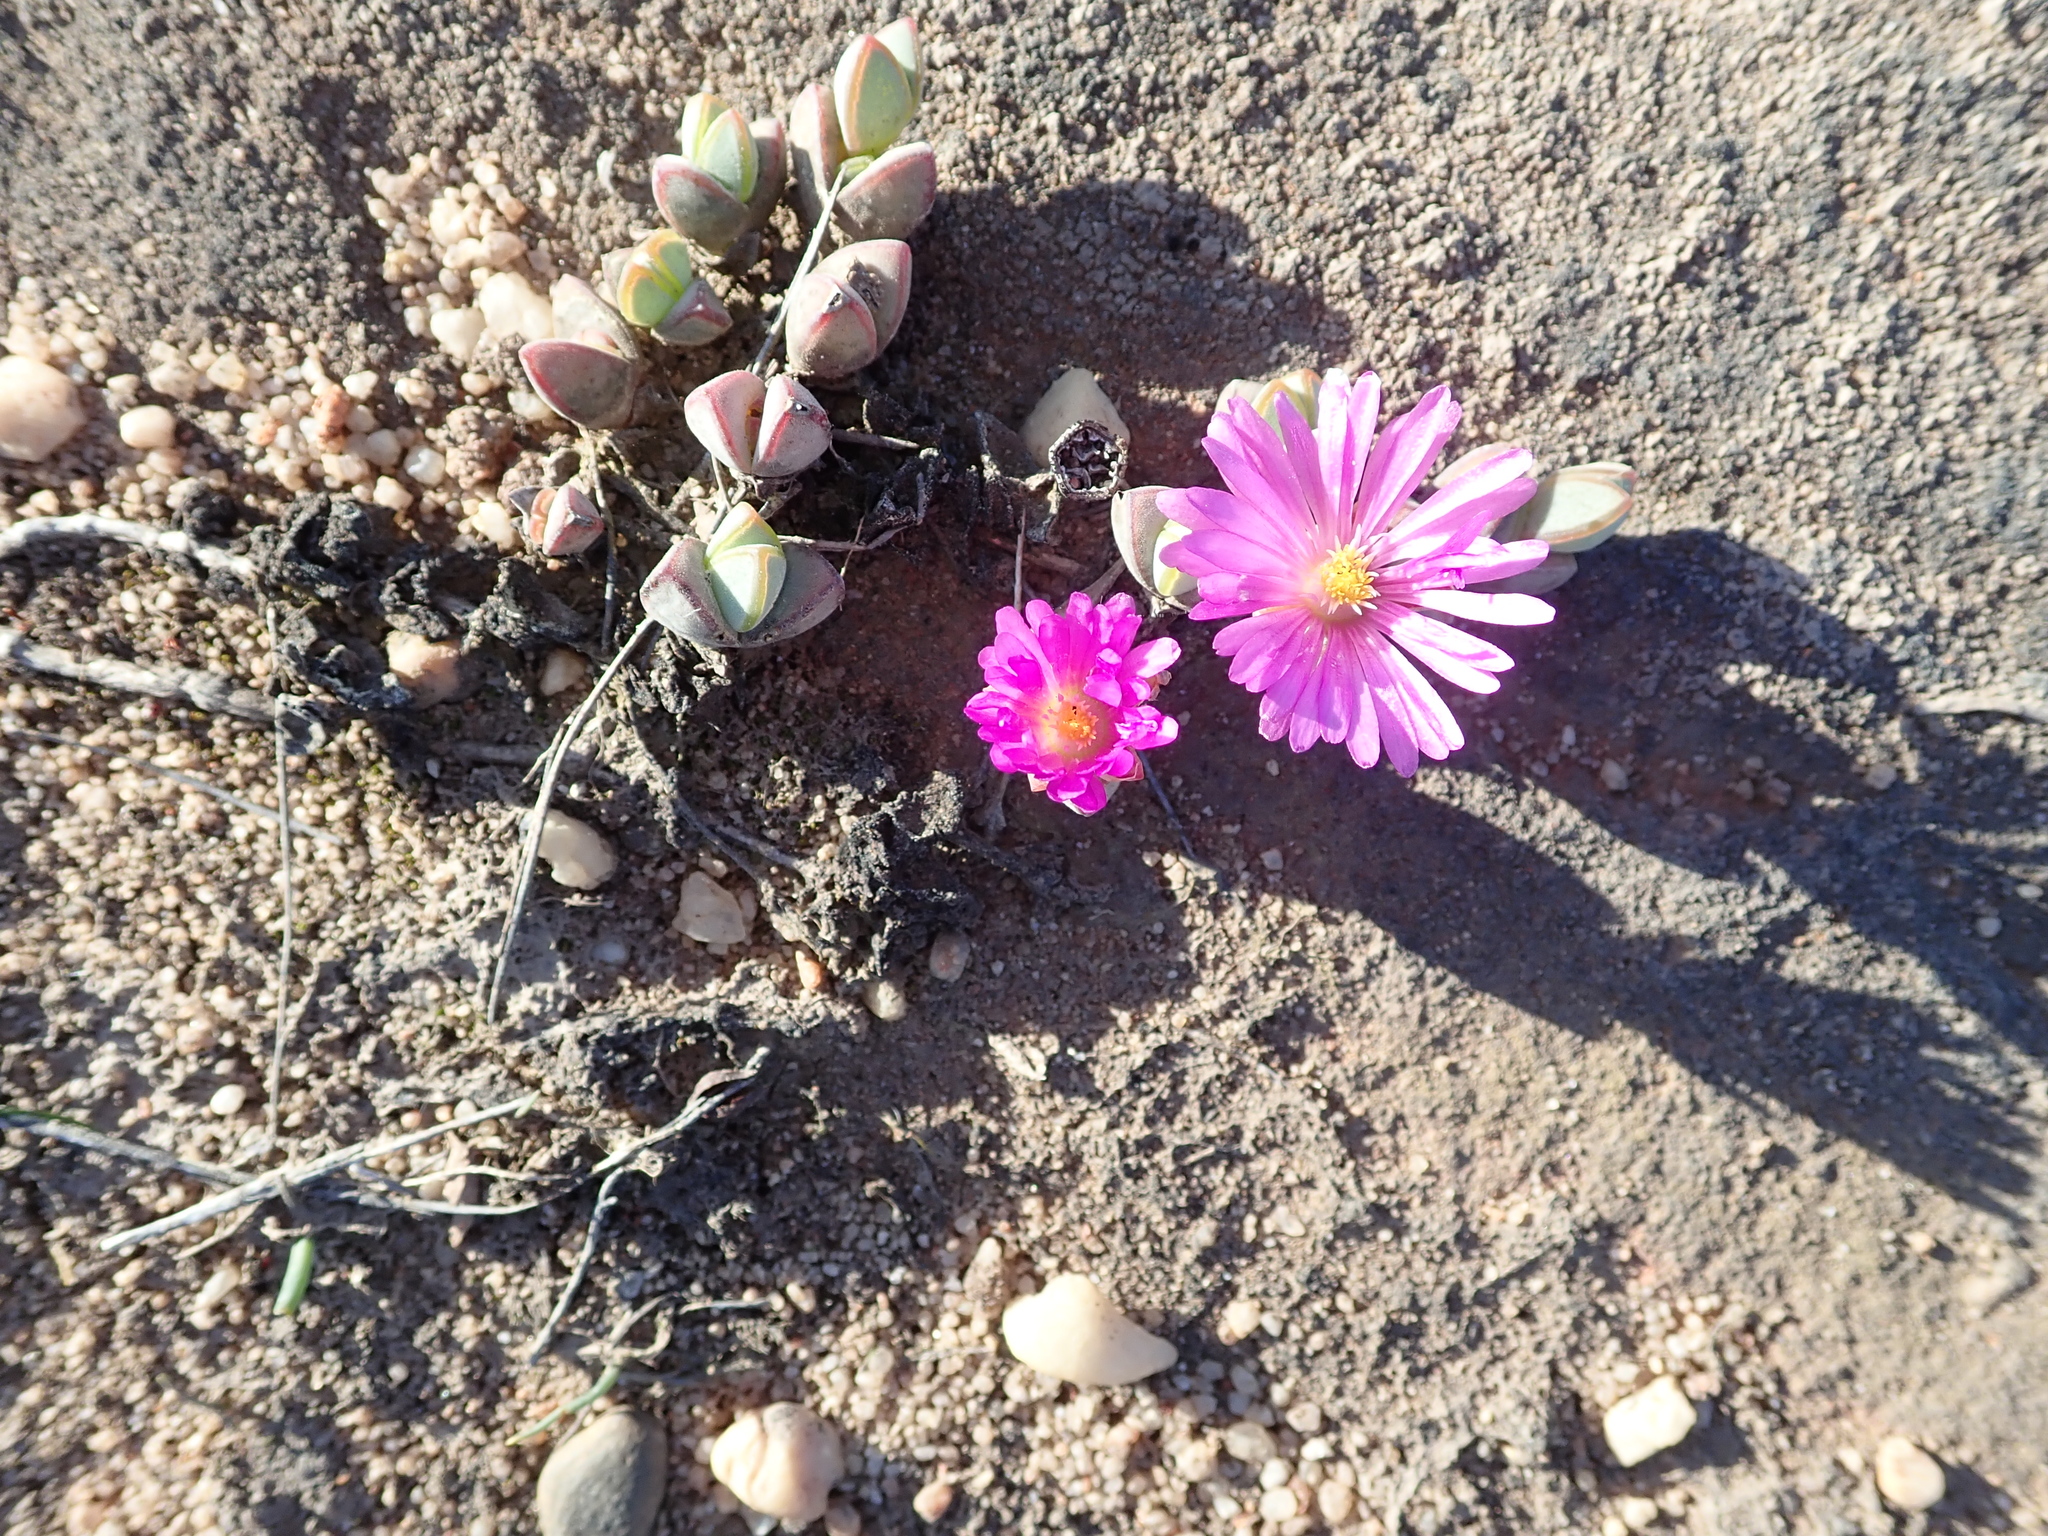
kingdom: Plantae
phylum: Tracheophyta
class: Magnoliopsida
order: Caryophyllales
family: Aizoaceae
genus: Braunsia
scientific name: Braunsia maximiliani
